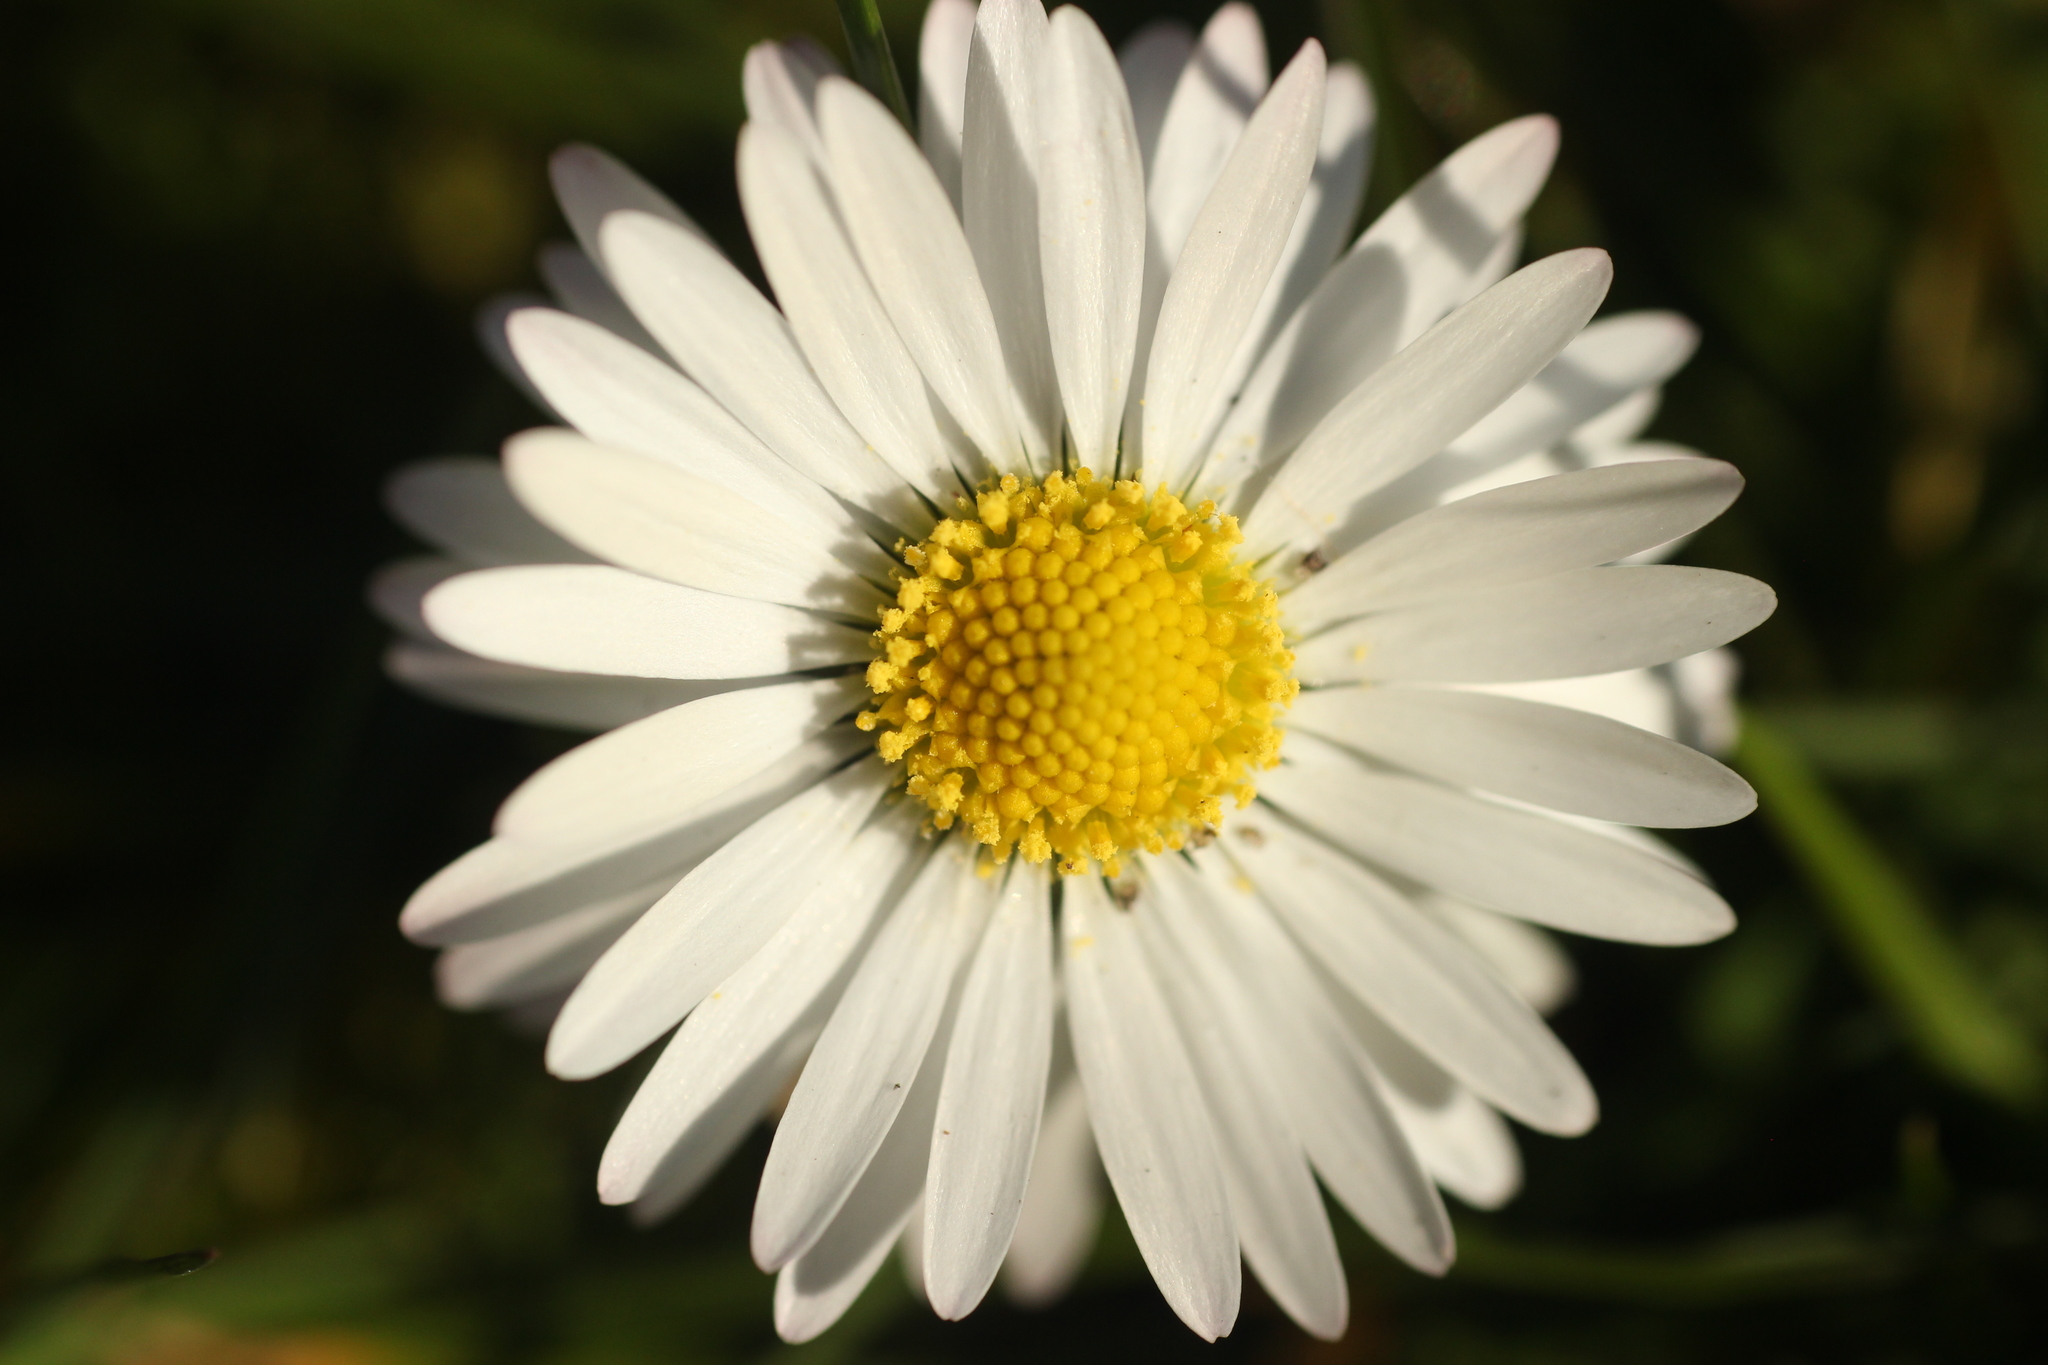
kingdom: Plantae
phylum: Tracheophyta
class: Magnoliopsida
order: Asterales
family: Asteraceae
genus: Bellis
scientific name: Bellis perennis
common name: Lawndaisy
